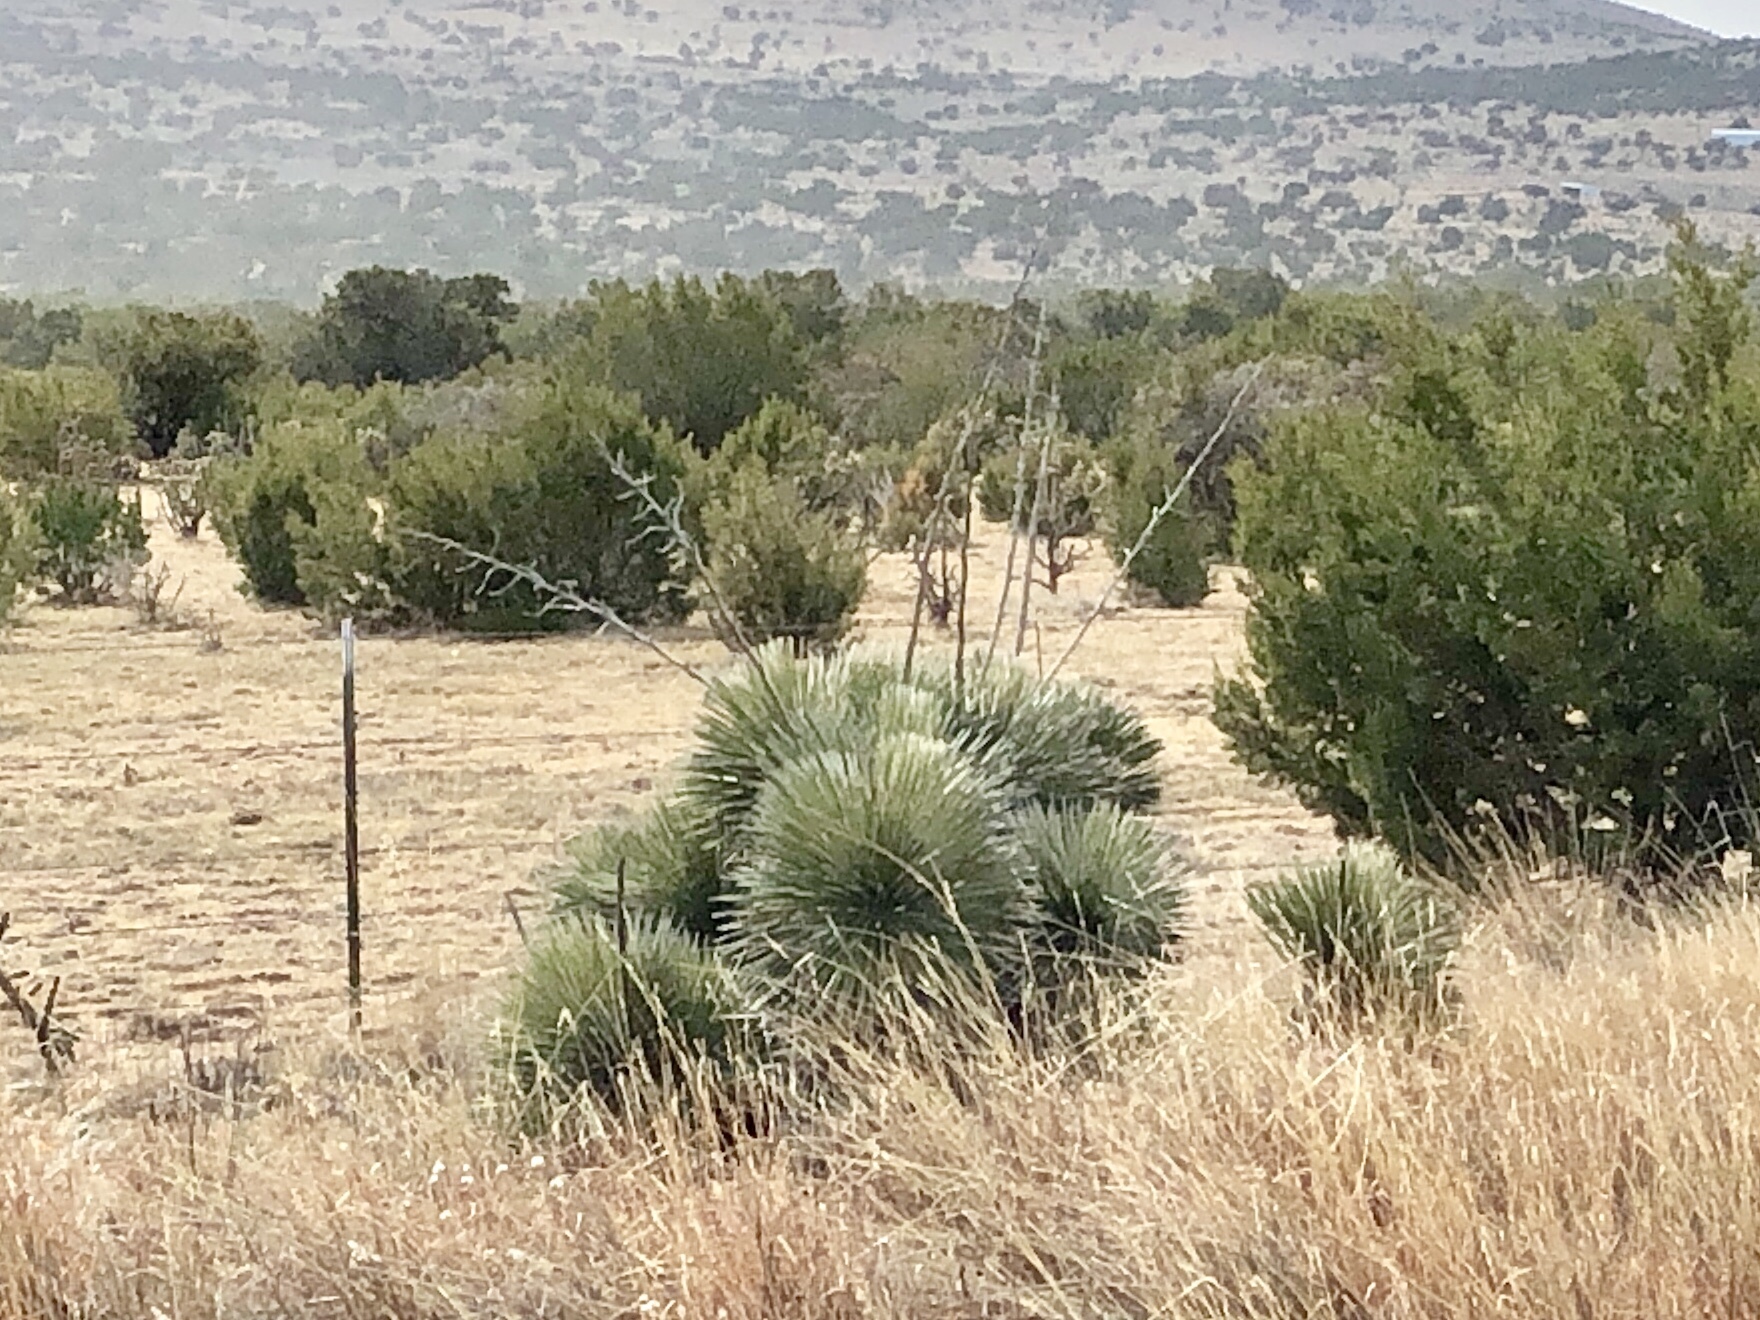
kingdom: Plantae
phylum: Tracheophyta
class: Liliopsida
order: Asparagales
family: Asparagaceae
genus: Yucca
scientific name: Yucca elata
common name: Palmella
